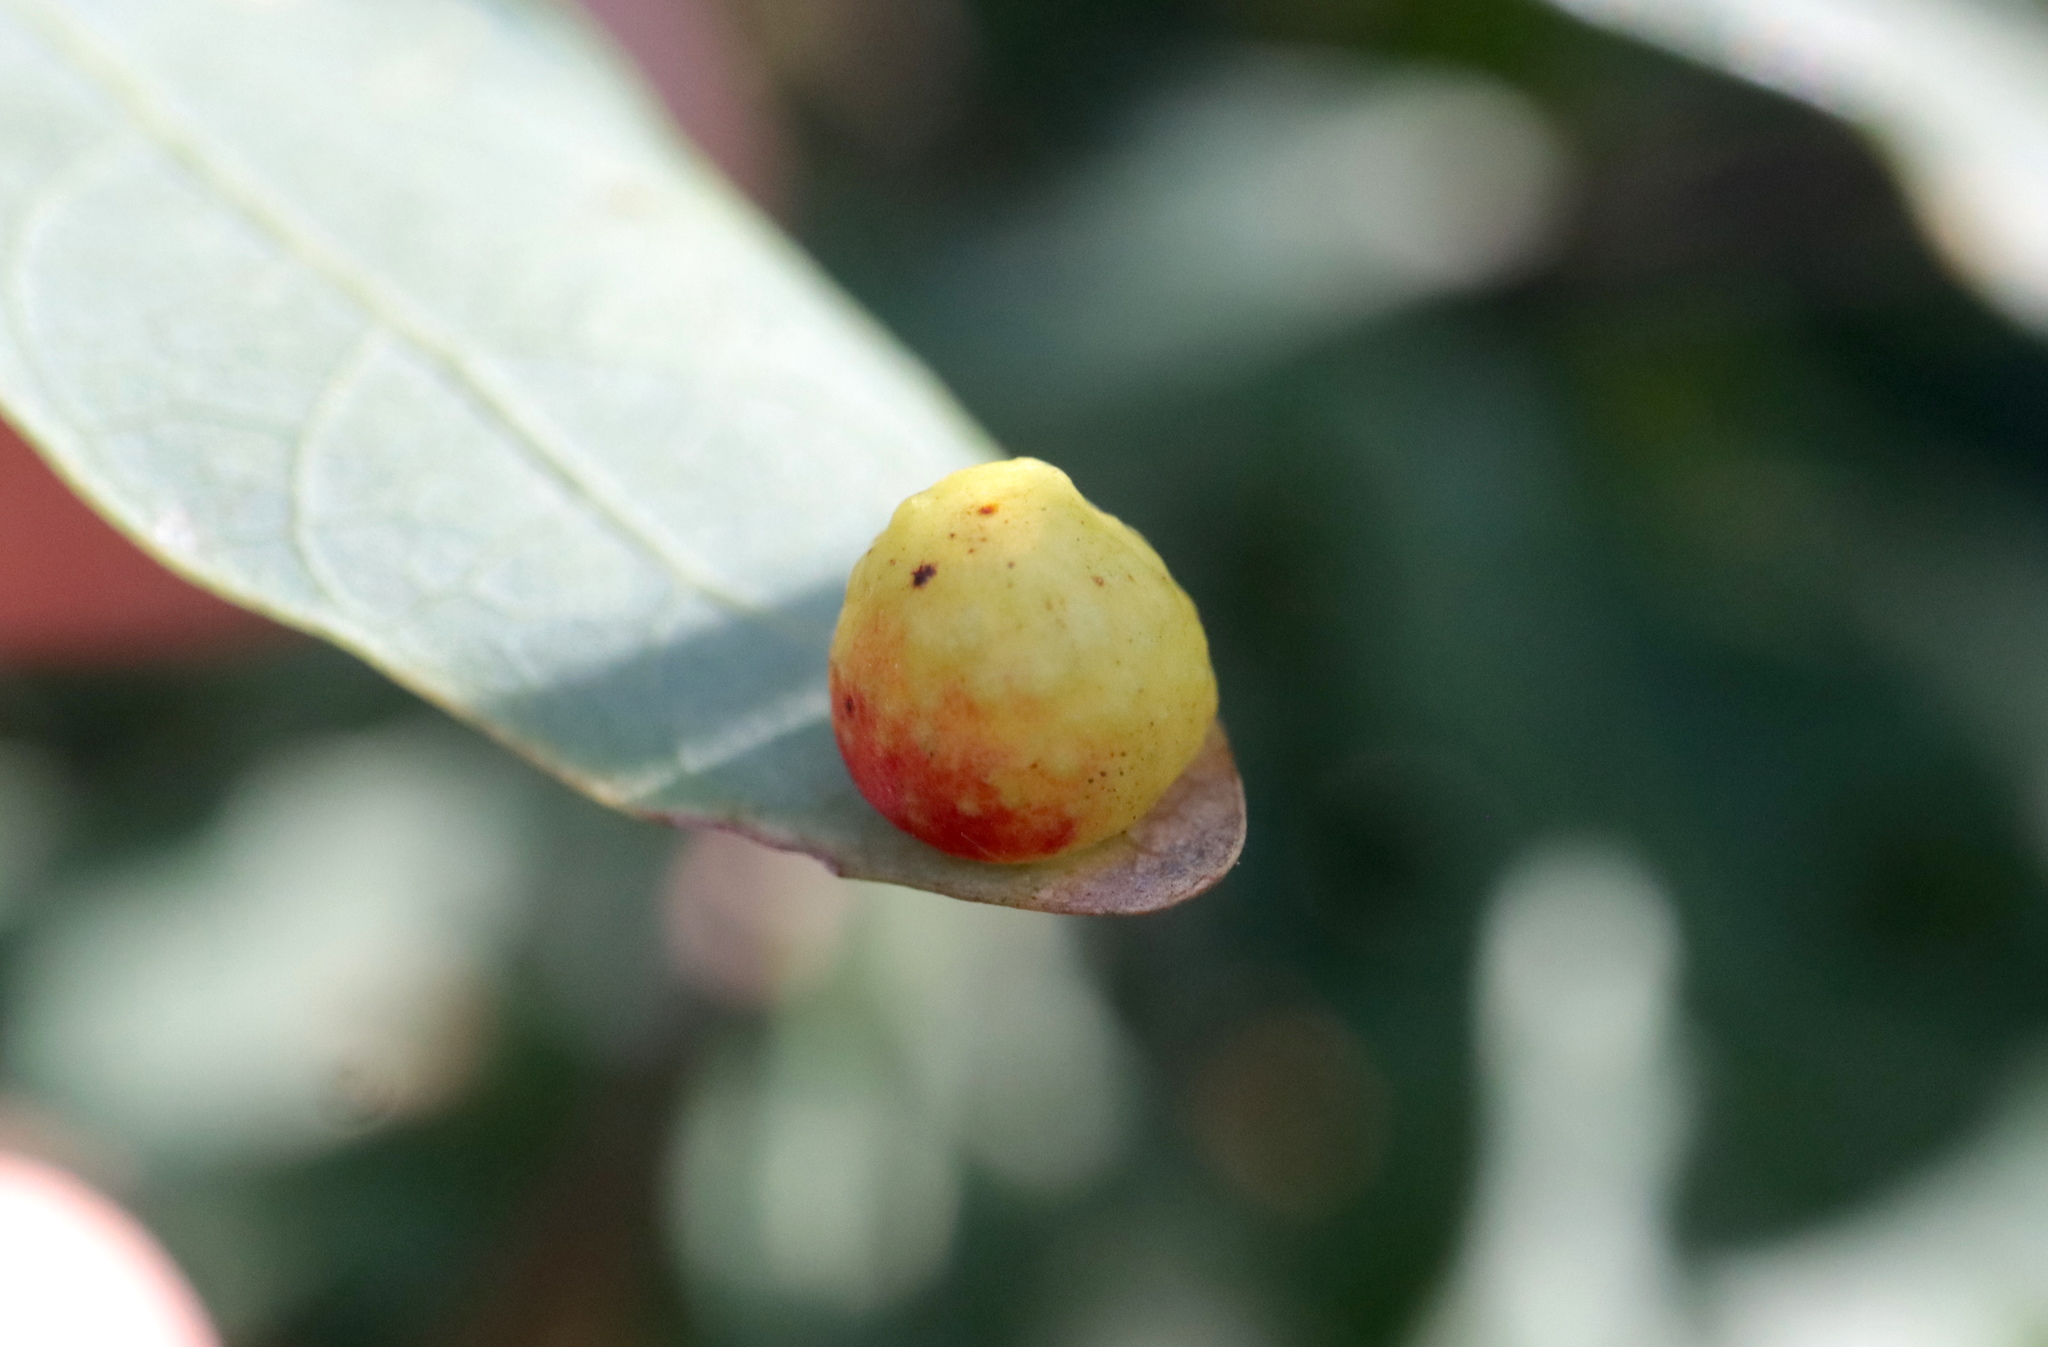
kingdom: Animalia
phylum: Arthropoda
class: Insecta
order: Hymenoptera
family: Cynipidae
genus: Andricus
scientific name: Andricus
